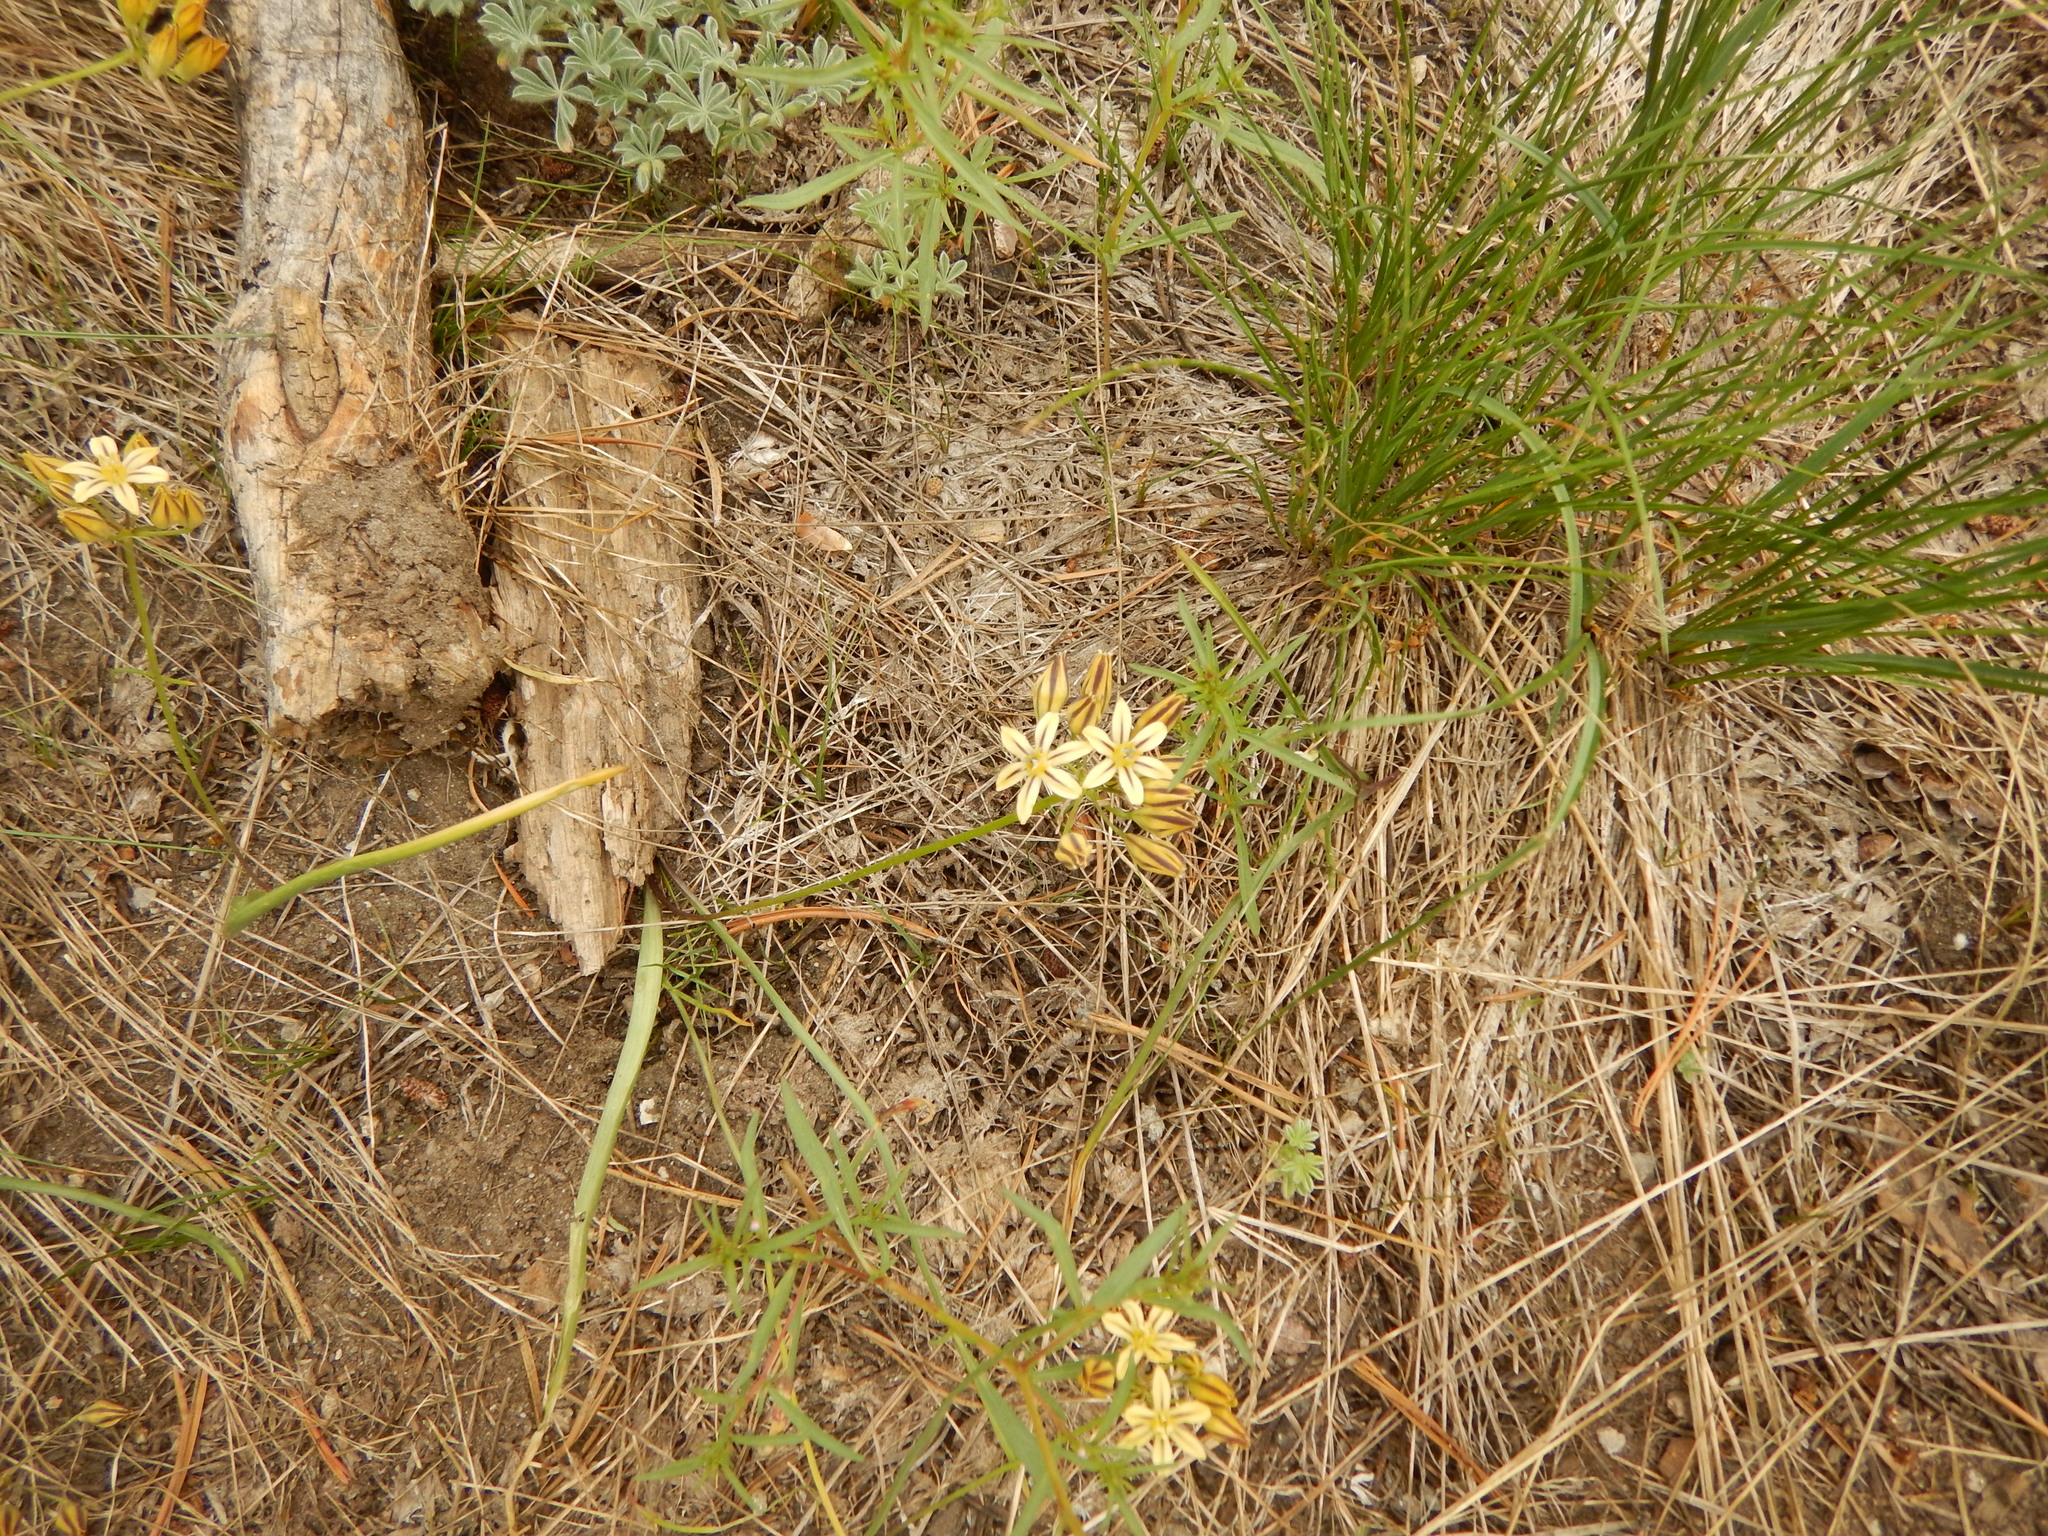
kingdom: Plantae
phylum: Tracheophyta
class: Liliopsida
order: Asparagales
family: Asparagaceae
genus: Triteleia
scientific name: Triteleia ixioides
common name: Yellow-brodiaea
